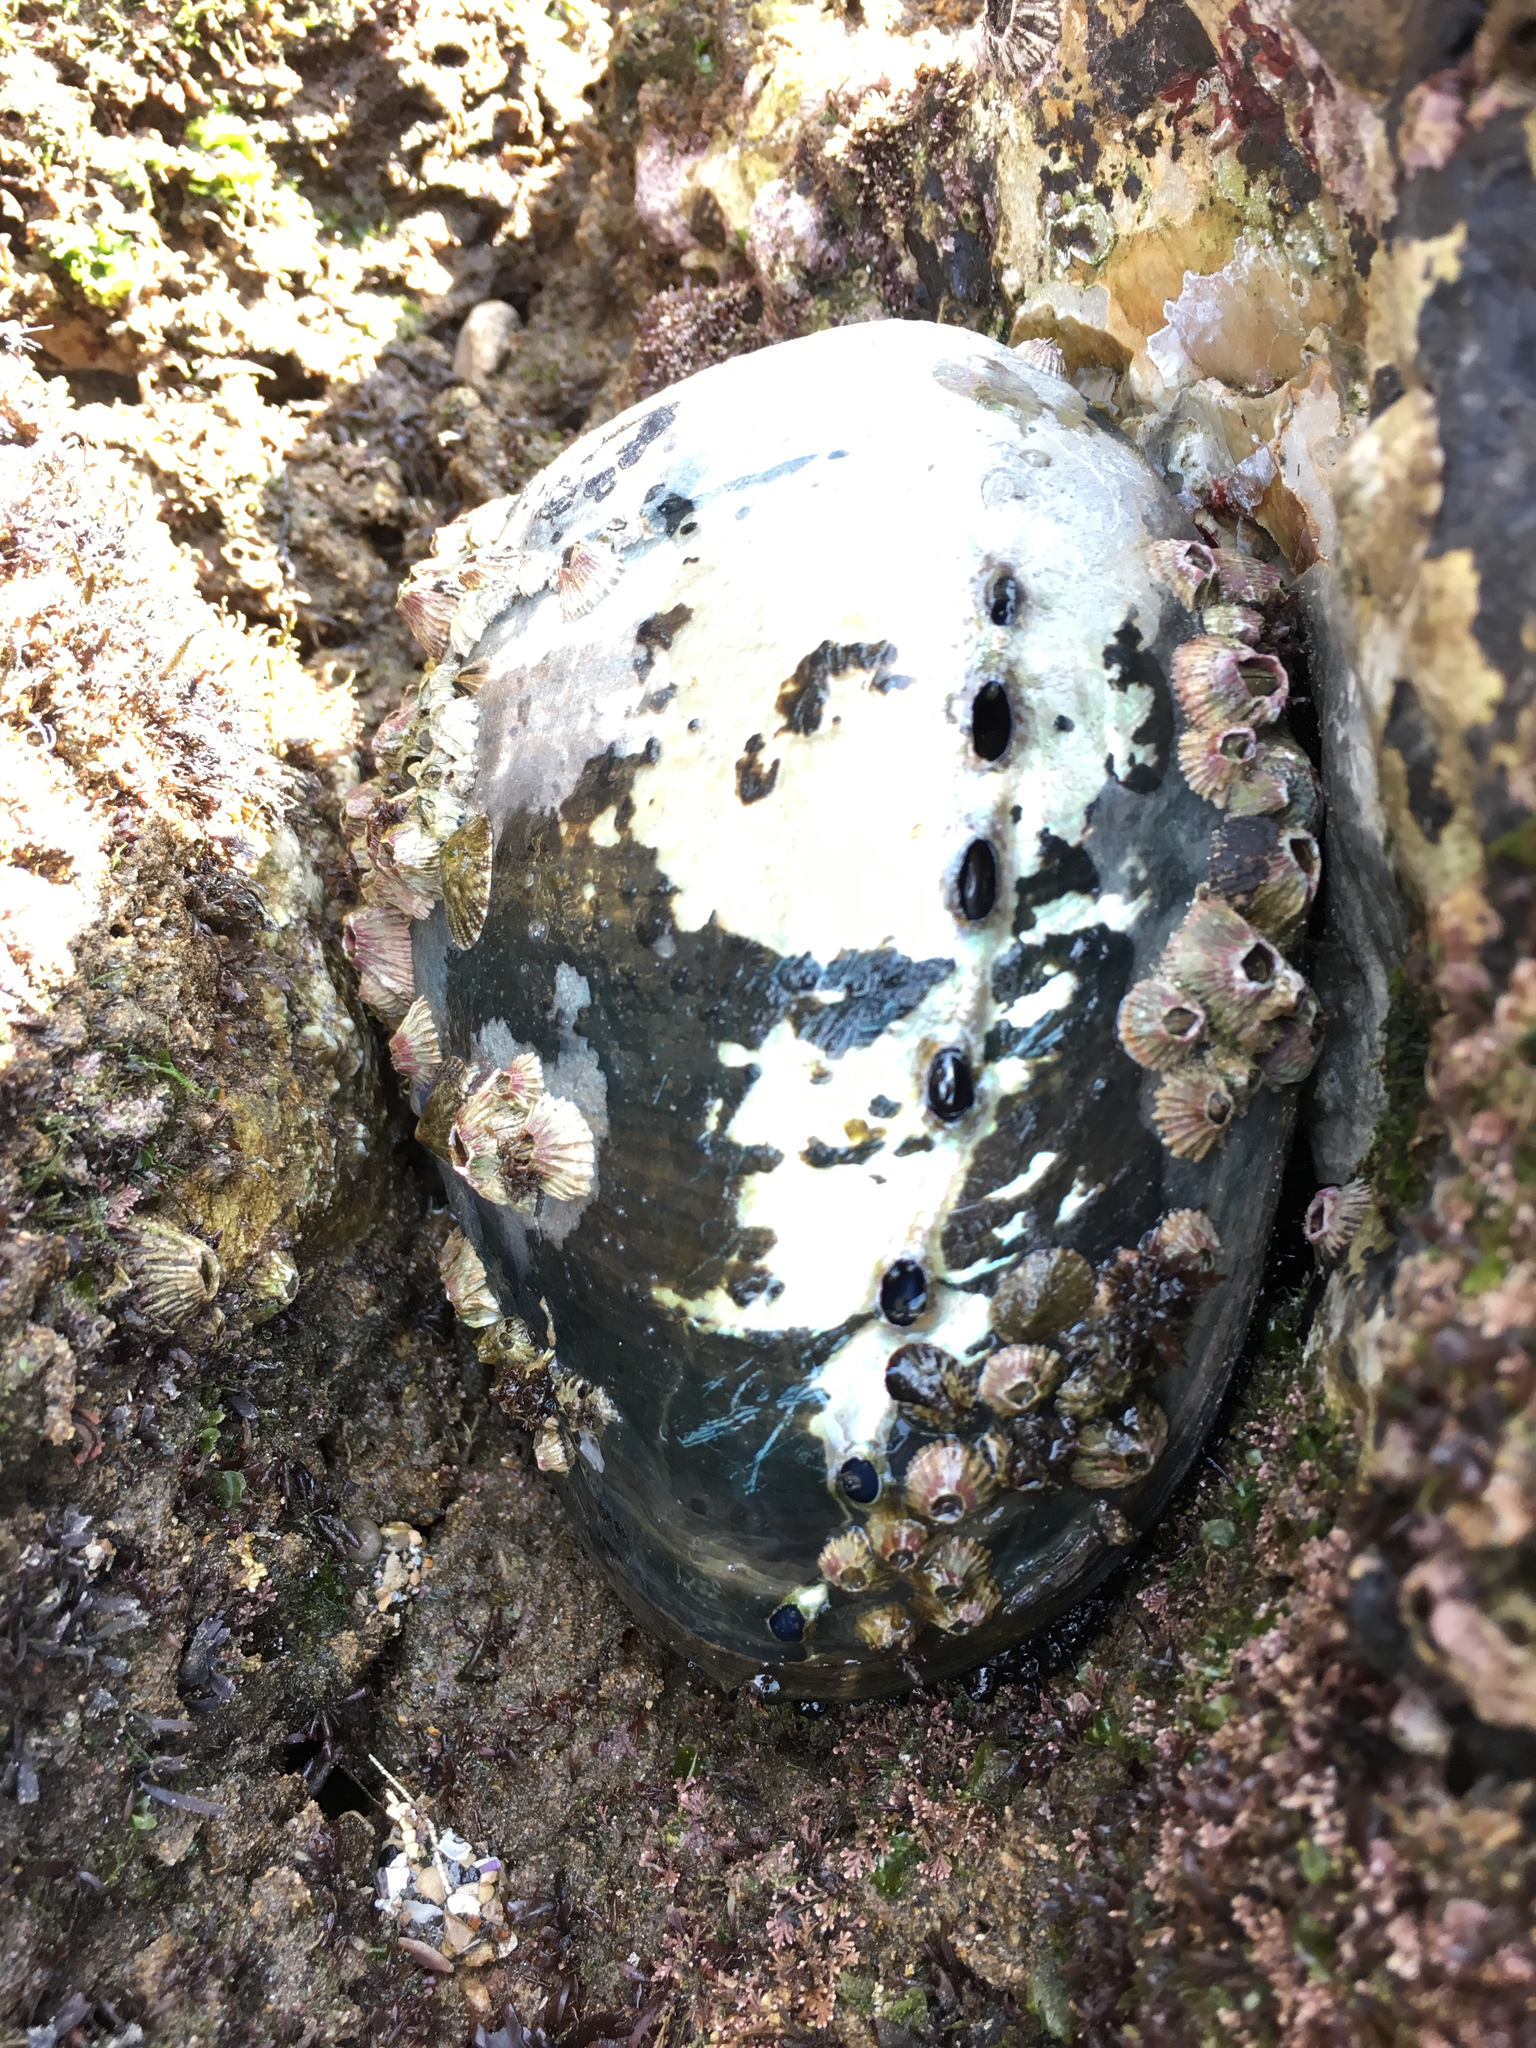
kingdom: Animalia
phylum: Mollusca
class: Gastropoda
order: Lepetellida
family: Haliotidae
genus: Haliotis
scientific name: Haliotis cracherodii
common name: Black abalone
